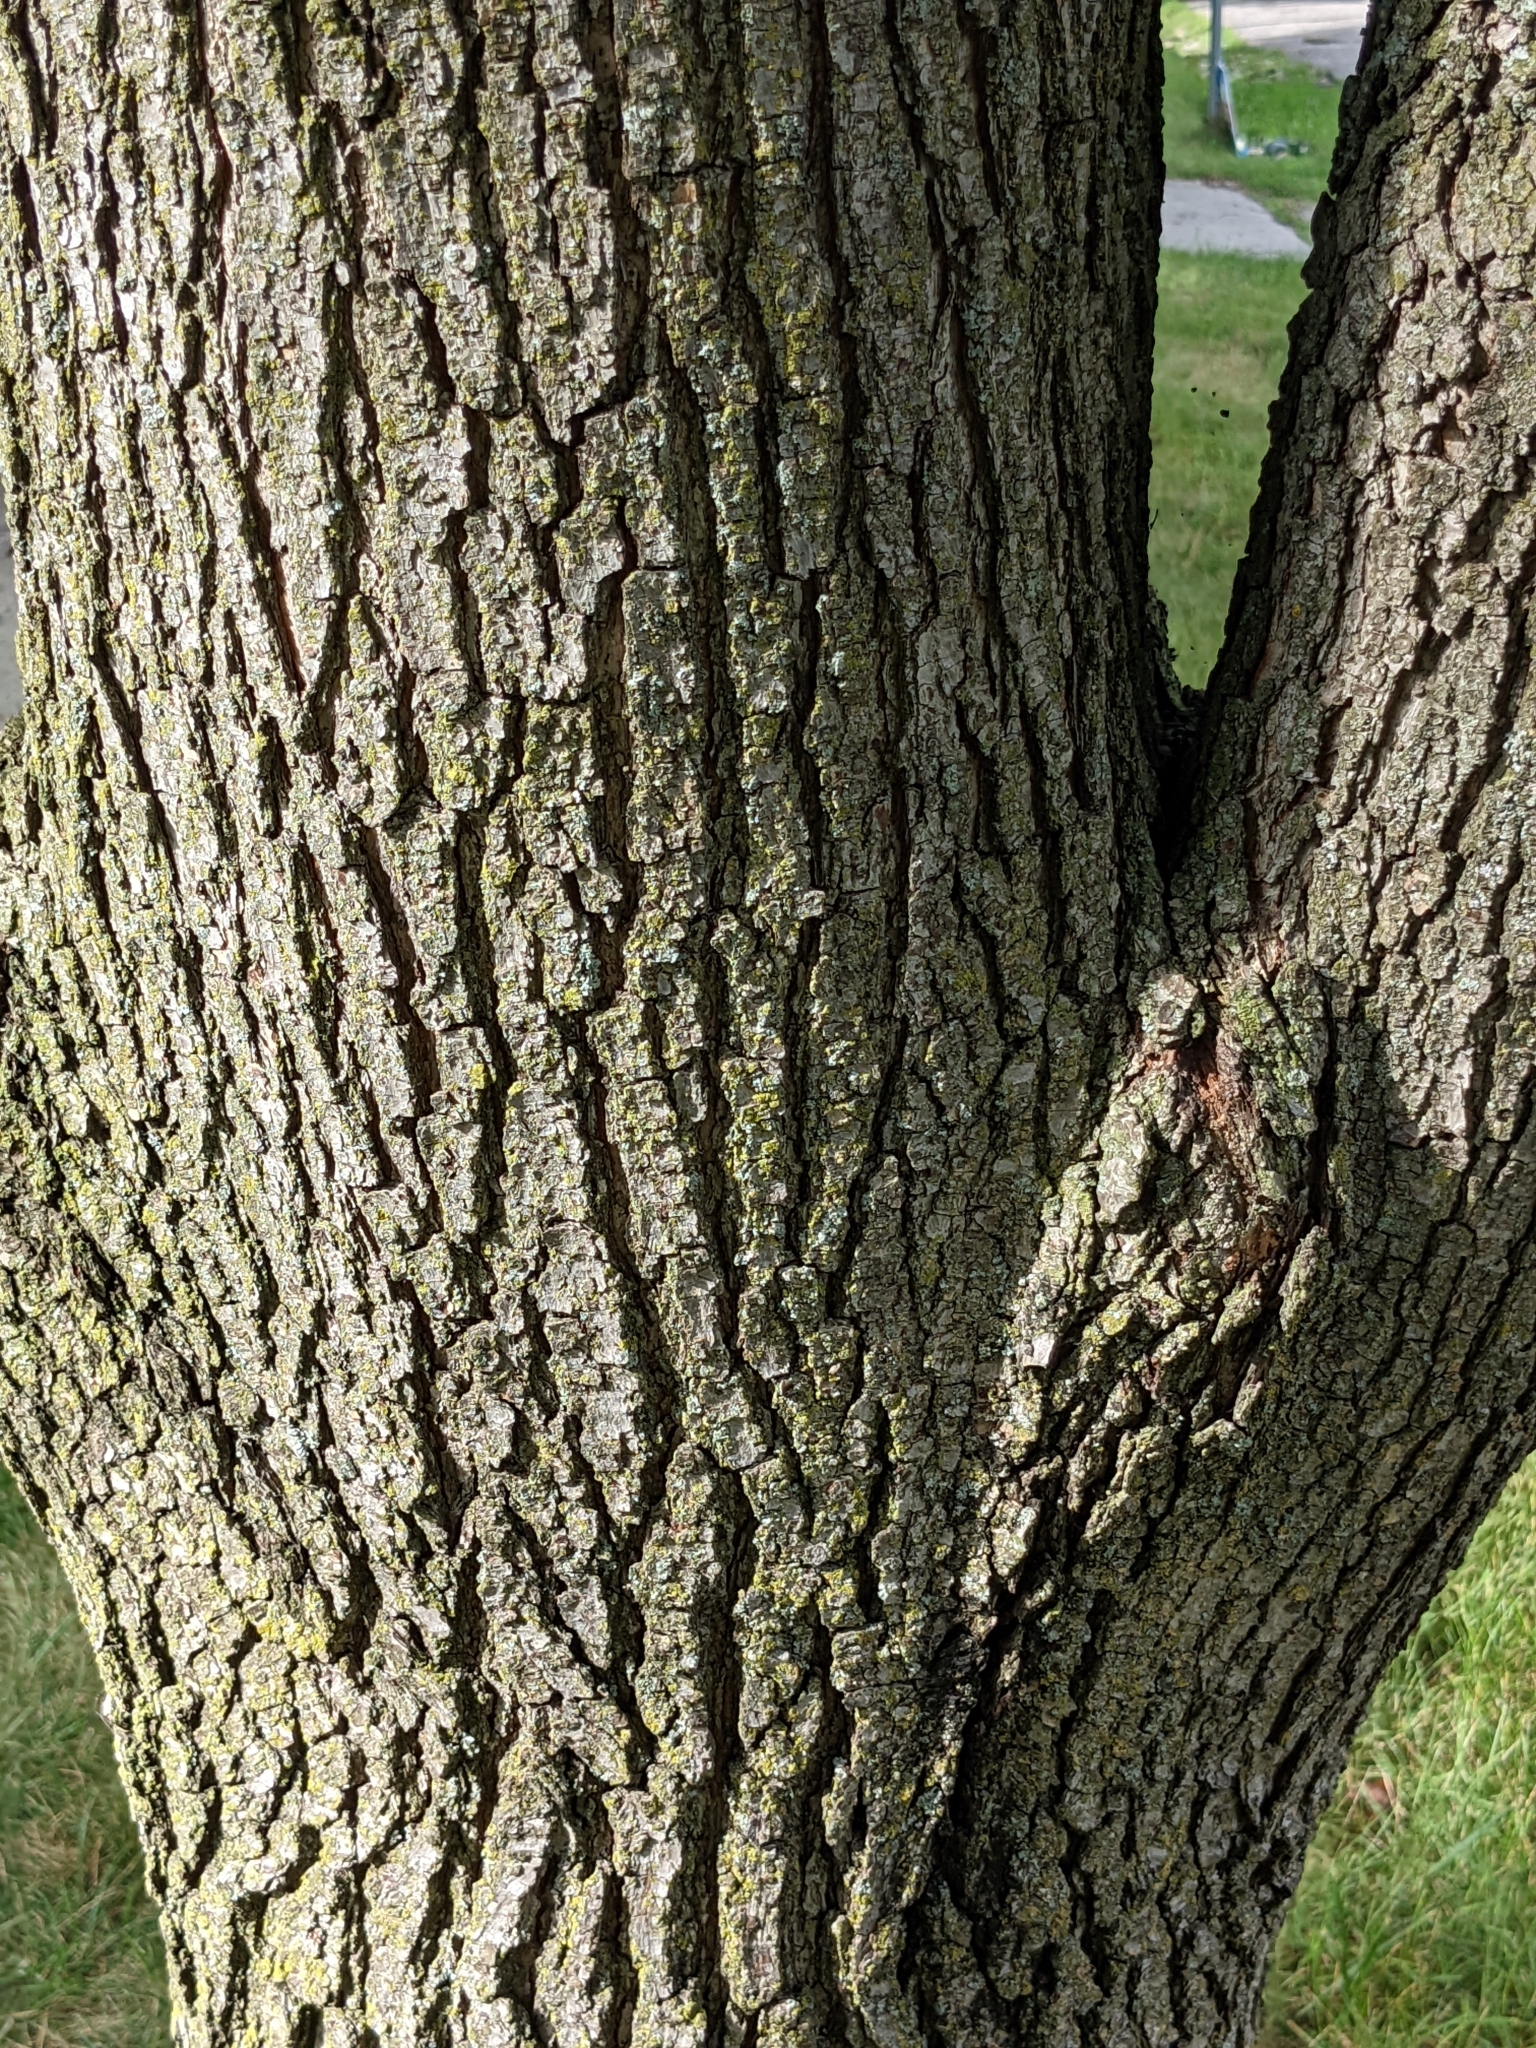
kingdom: Plantae
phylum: Tracheophyta
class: Magnoliopsida
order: Rosales
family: Rosaceae
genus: Pyrus
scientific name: Pyrus calleryana
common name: Callery pear
